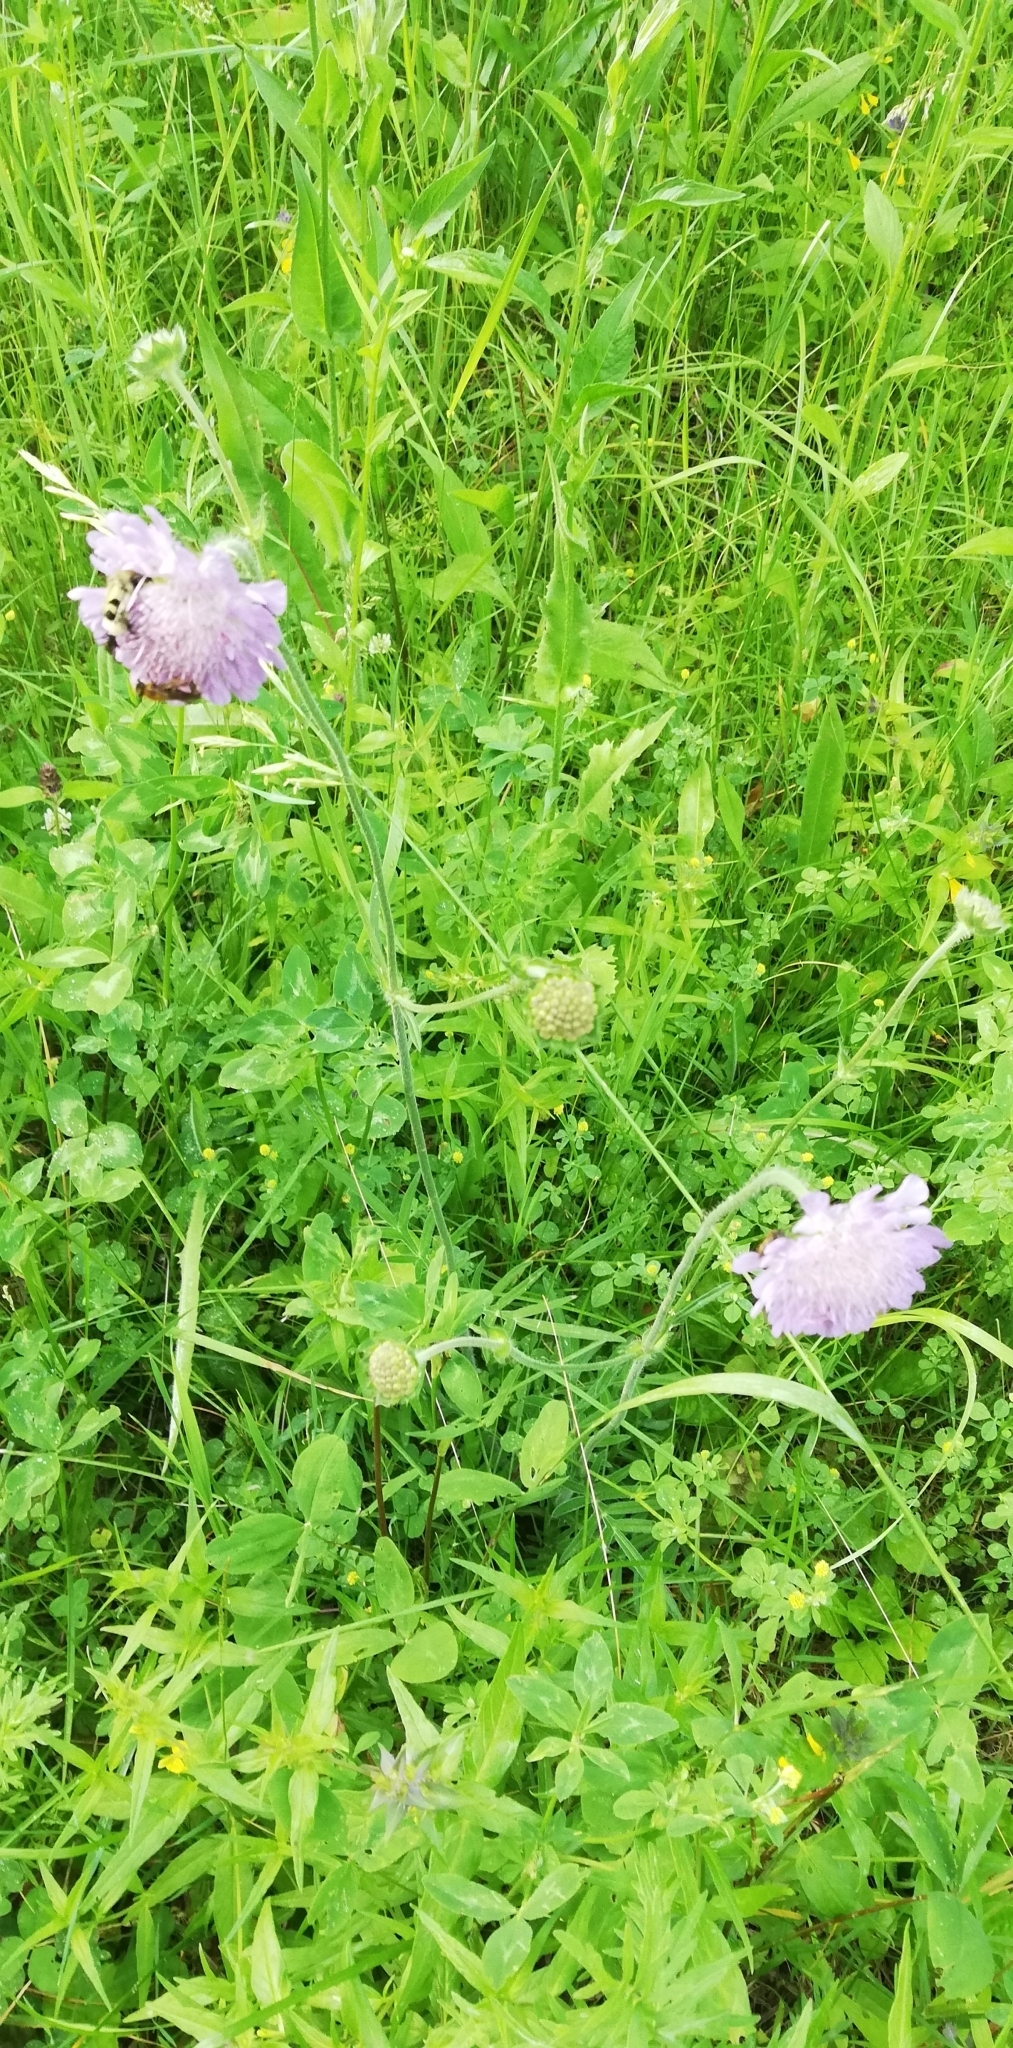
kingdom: Plantae
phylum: Tracheophyta
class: Magnoliopsida
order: Dipsacales
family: Caprifoliaceae
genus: Knautia
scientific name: Knautia arvensis
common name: Field scabiosa
